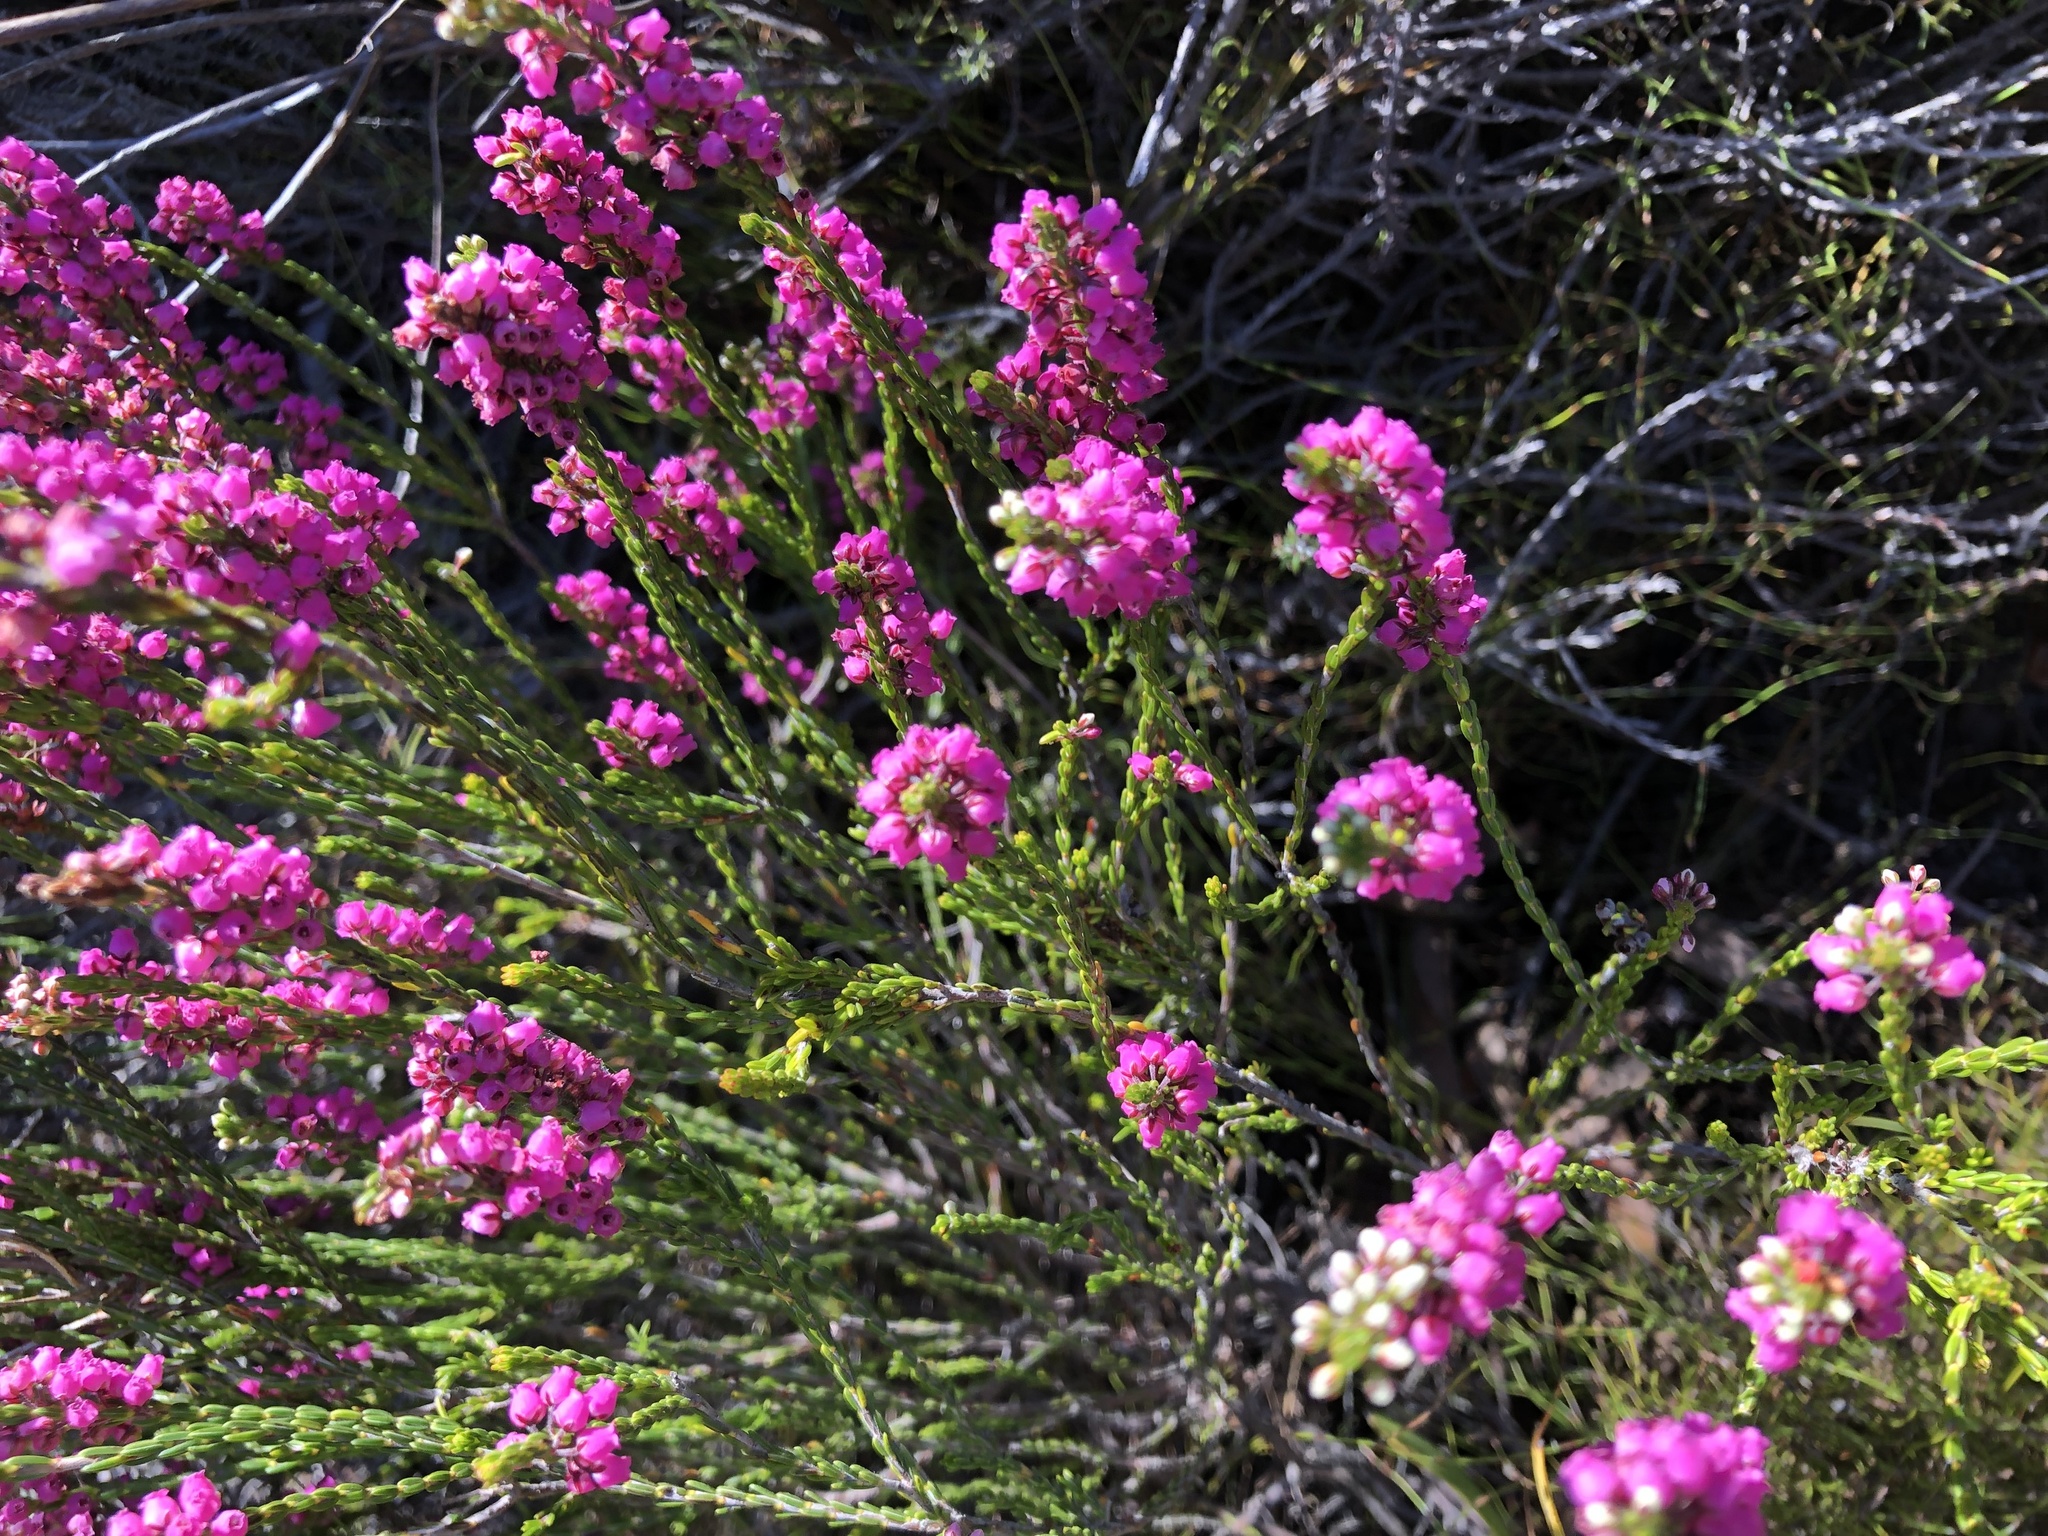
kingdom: Plantae
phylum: Tracheophyta
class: Magnoliopsida
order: Ericales
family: Ericaceae
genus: Erica
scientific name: Erica pulchella
